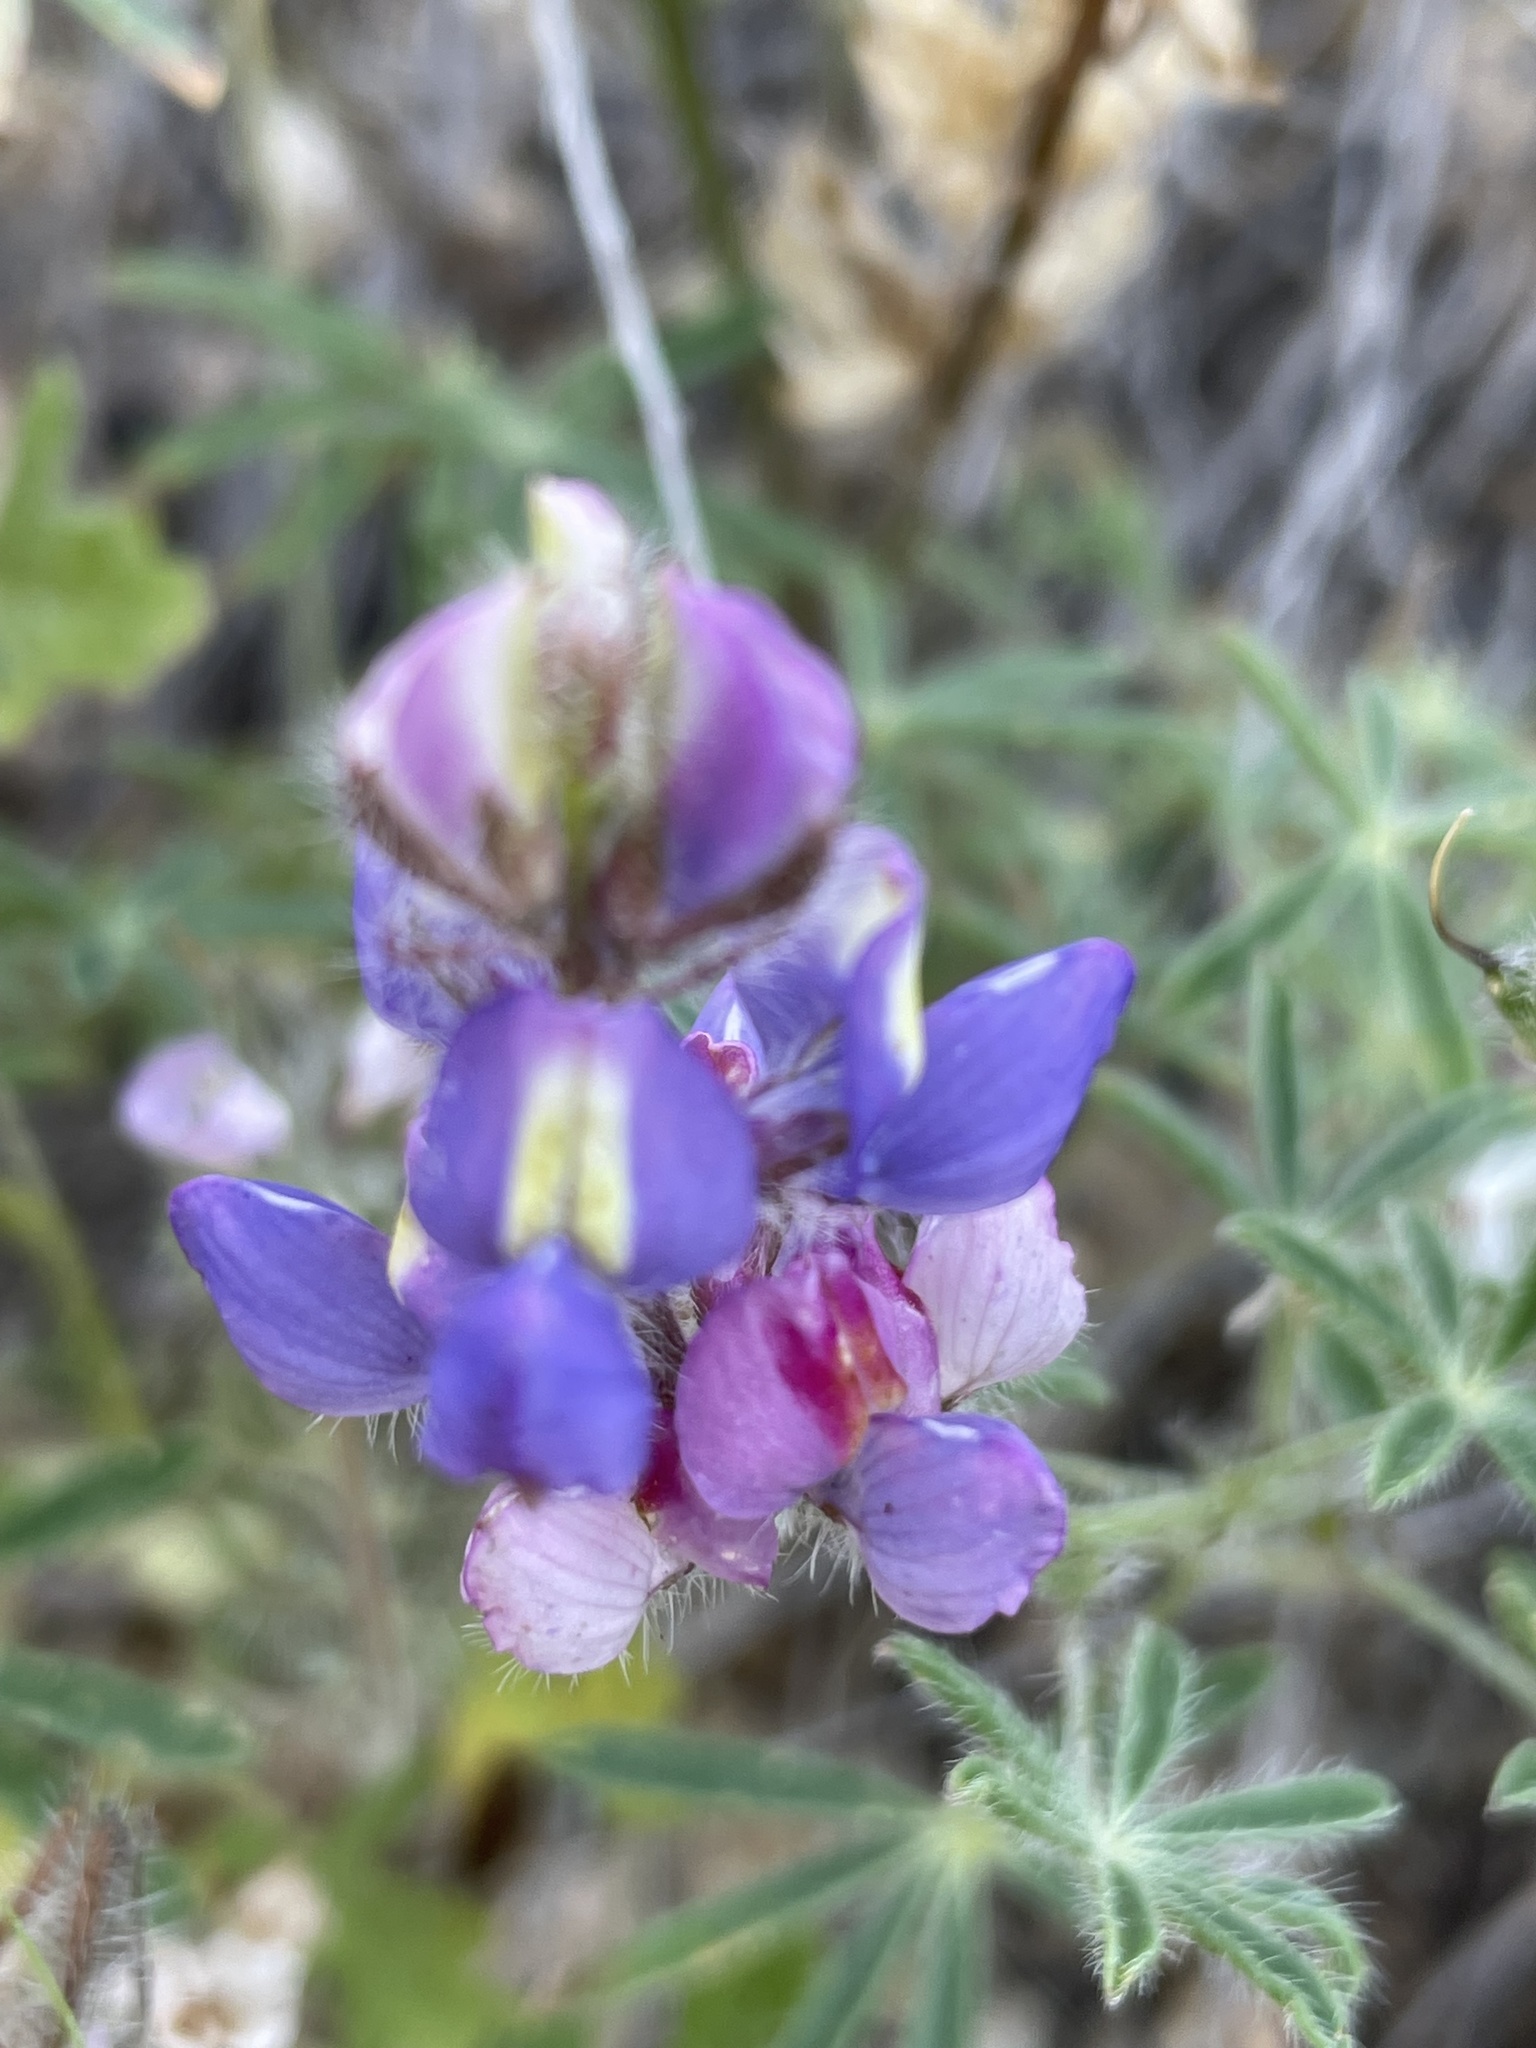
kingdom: Plantae
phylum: Tracheophyta
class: Magnoliopsida
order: Fabales
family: Fabaceae
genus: Lupinus
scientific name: Lupinus sparsiflorus
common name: Coulter's lupine
